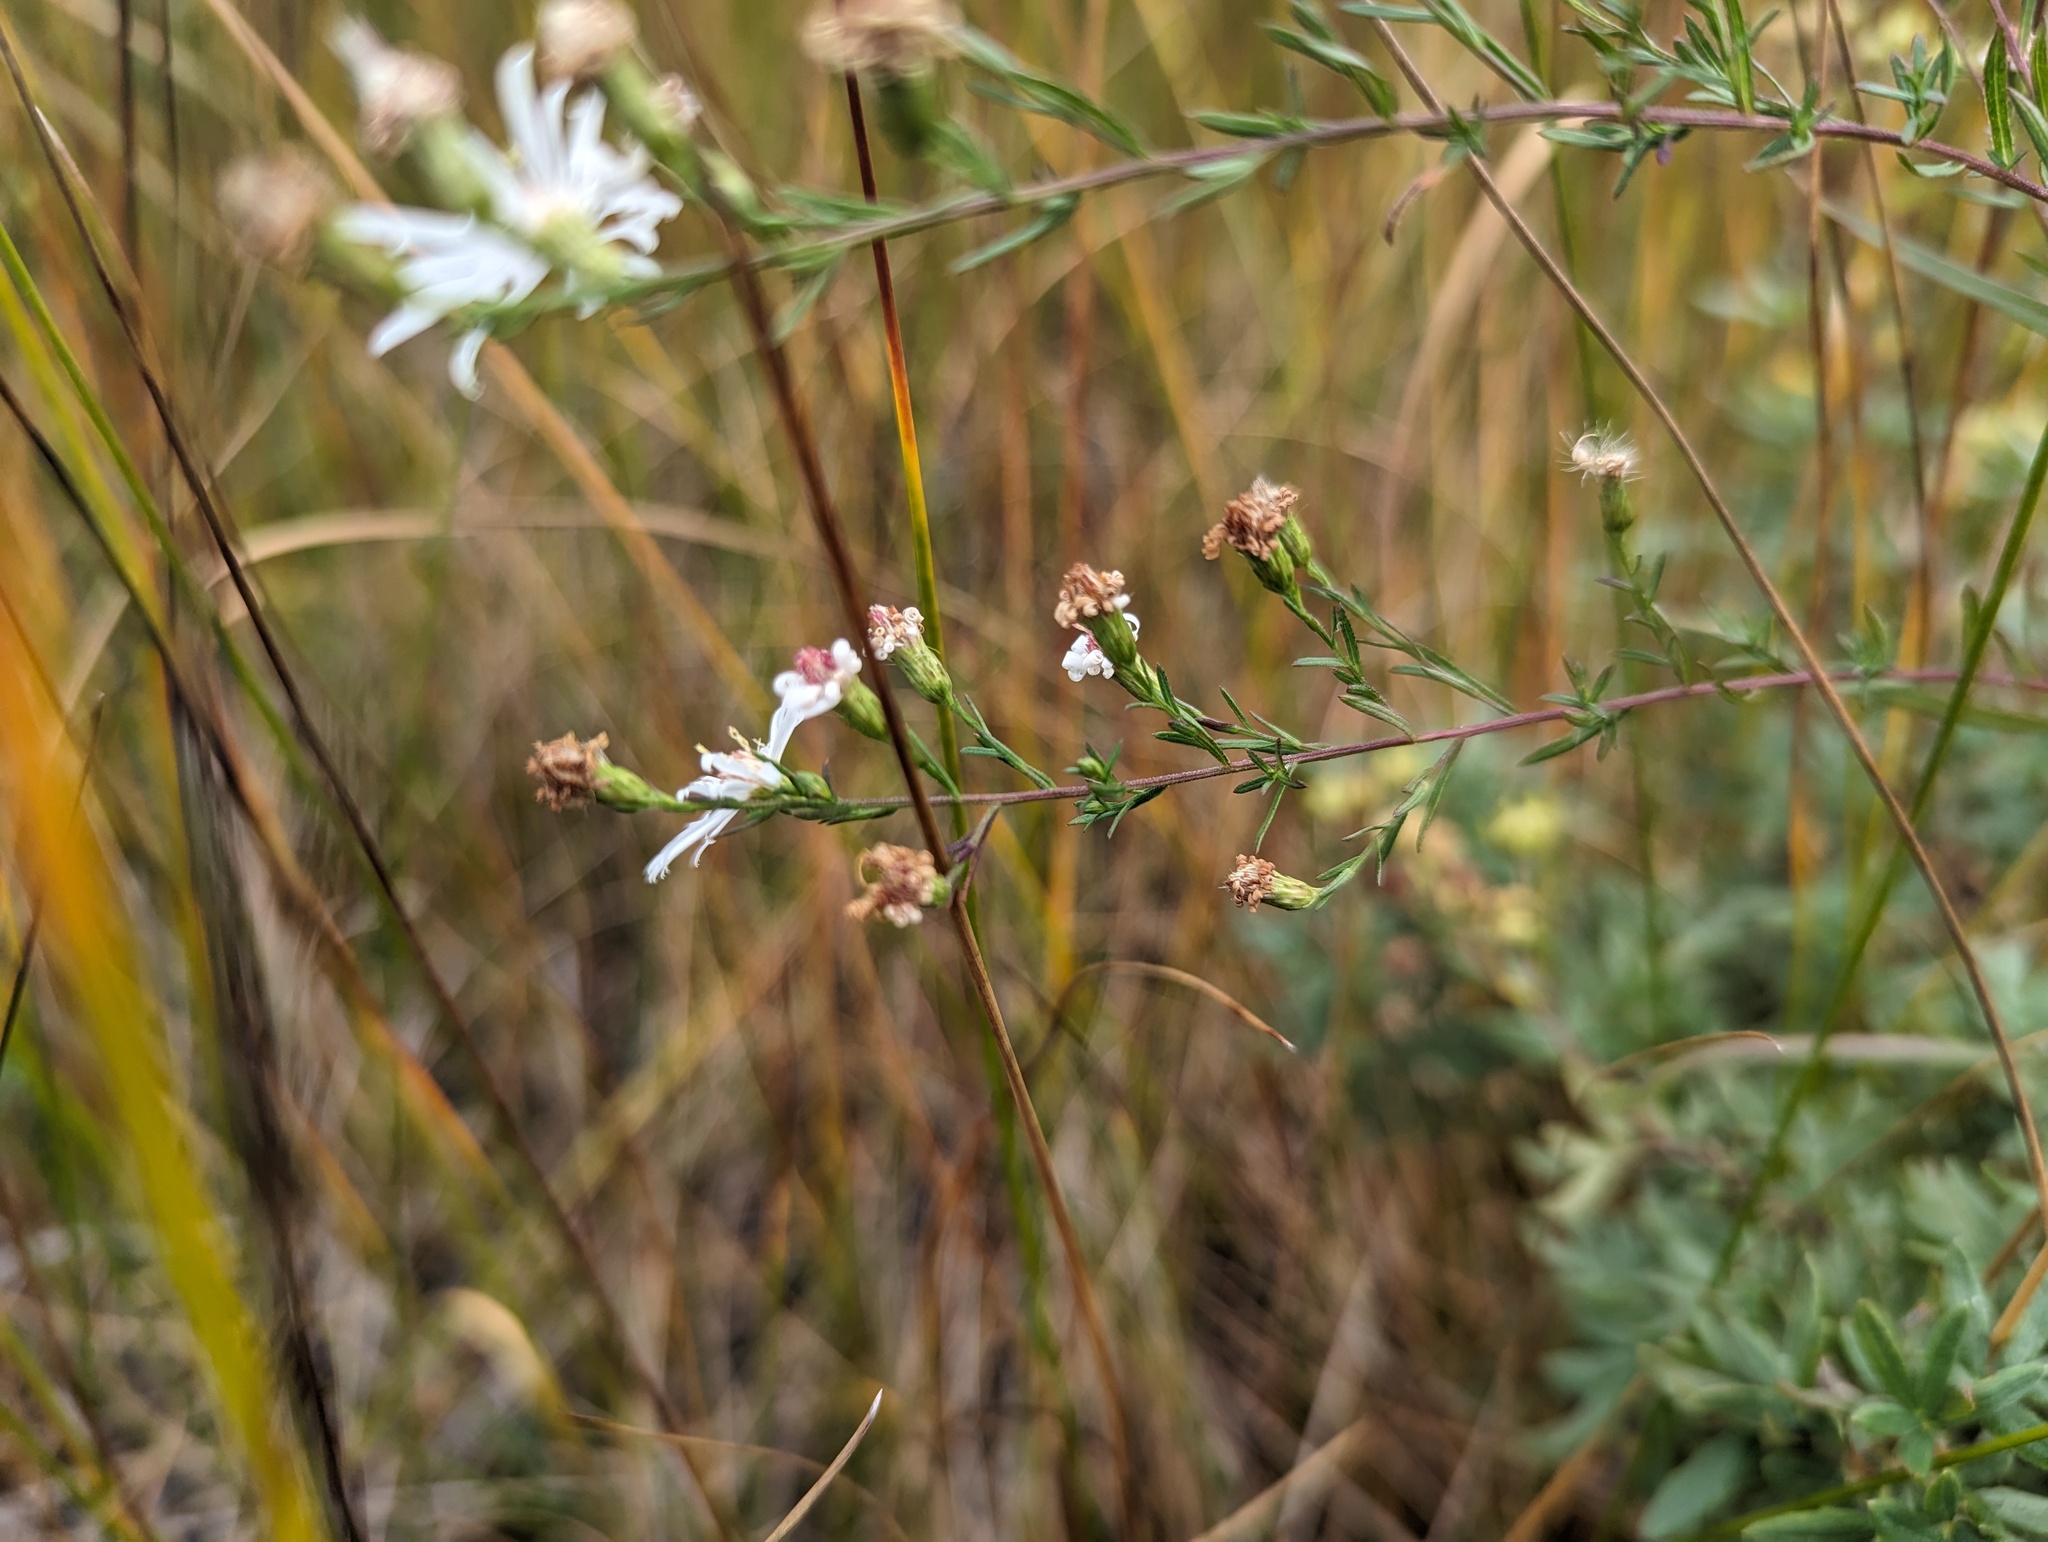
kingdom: Plantae
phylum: Tracheophyta
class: Magnoliopsida
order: Asterales
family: Asteraceae
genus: Symphyotrichum
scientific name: Symphyotrichum dumosum
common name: Bushy aster
